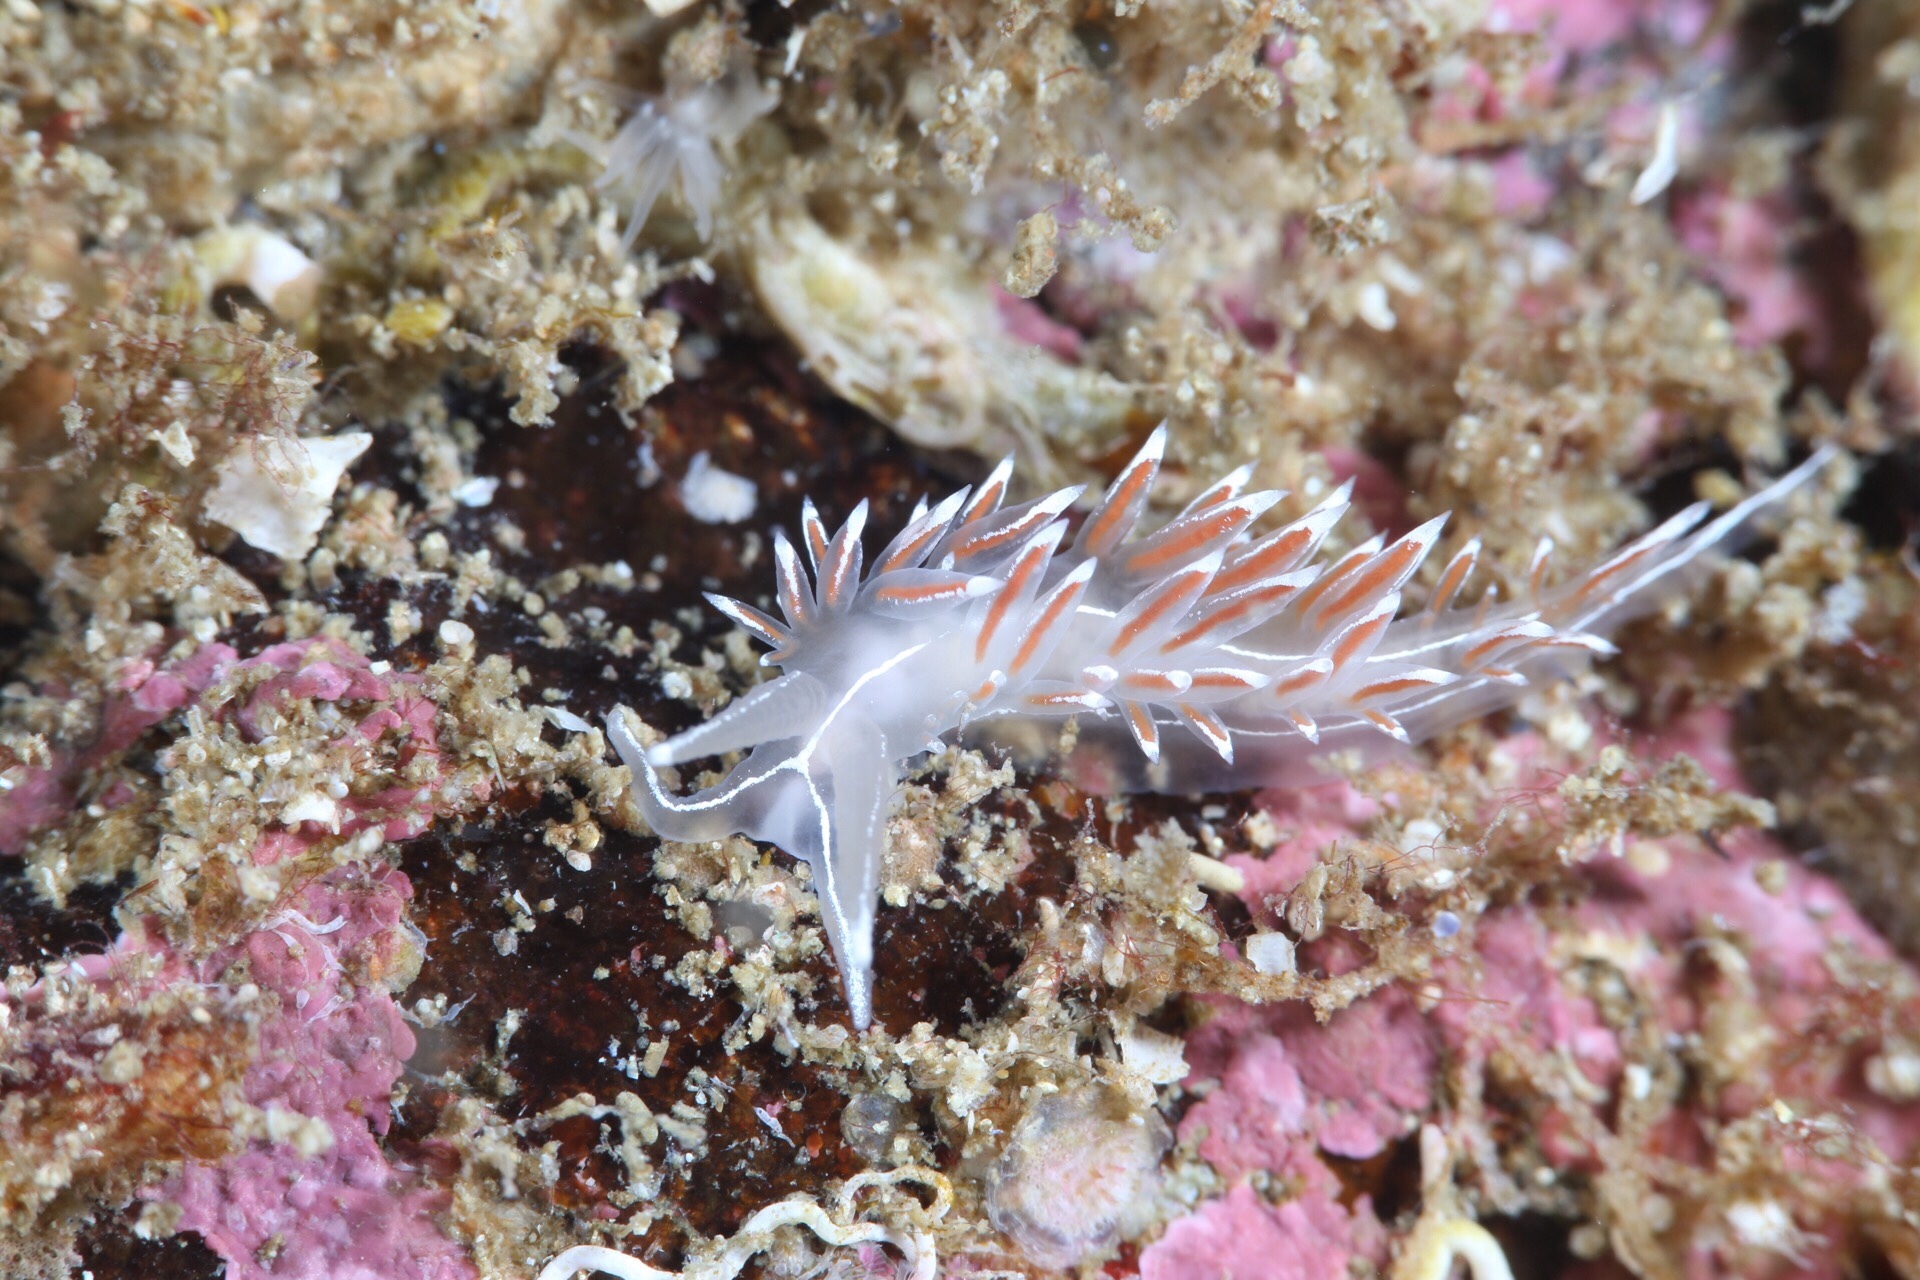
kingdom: Animalia
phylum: Mollusca
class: Gastropoda
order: Nudibranchia
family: Coryphellidae
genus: Coryphella
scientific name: Coryphella lineata
